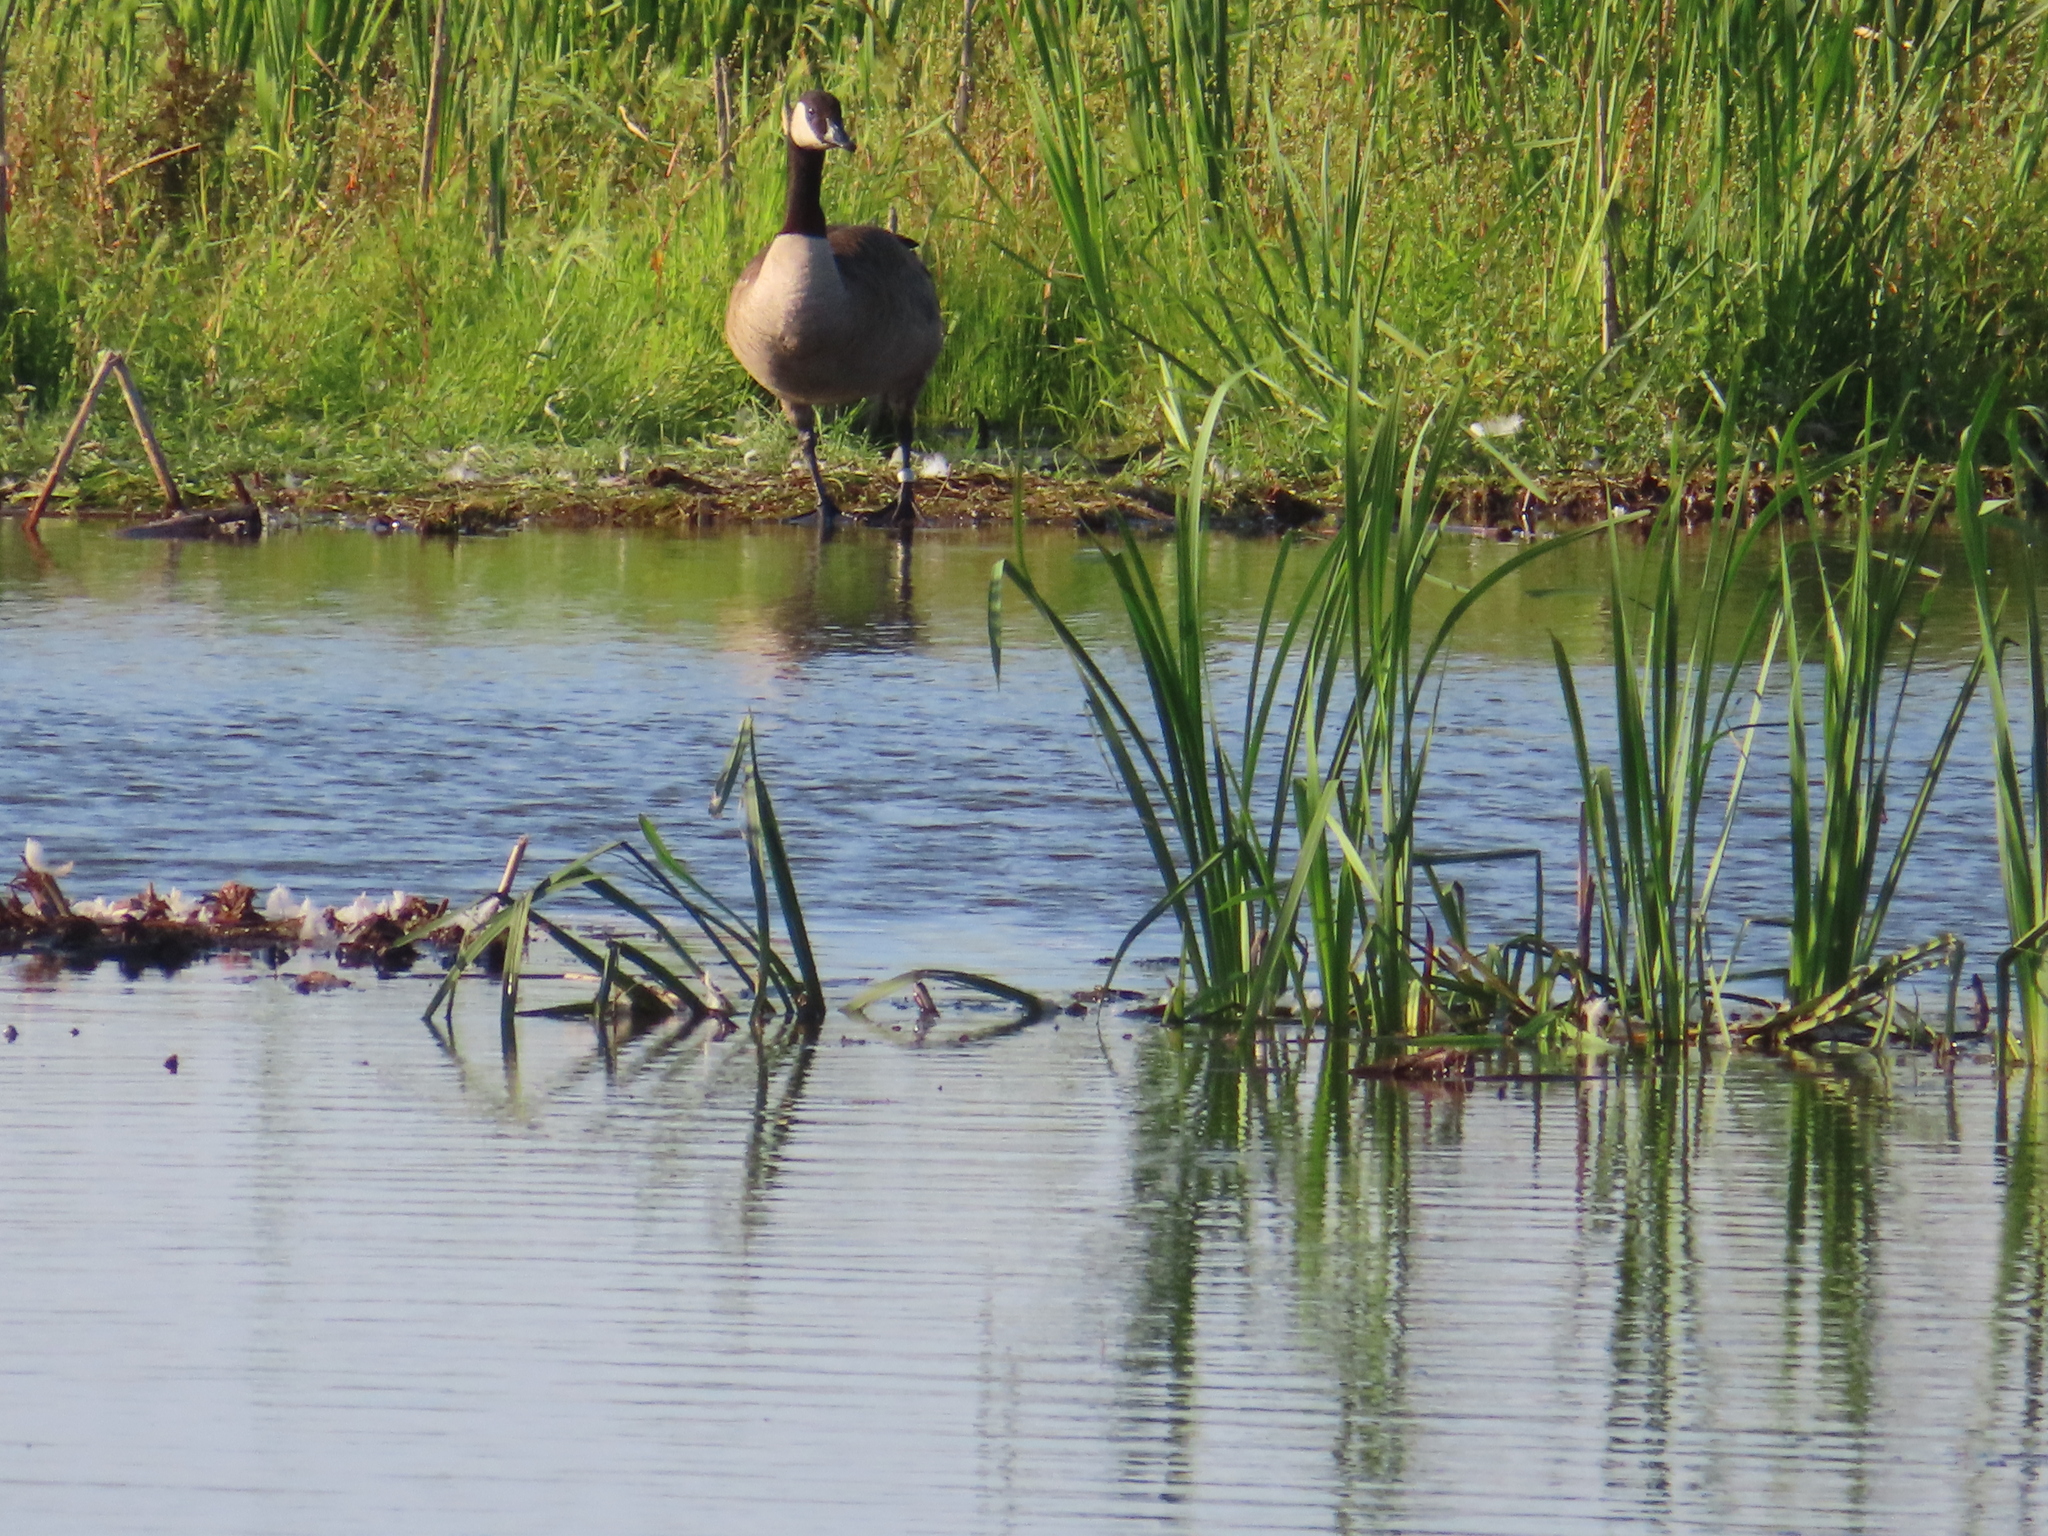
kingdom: Animalia
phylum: Chordata
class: Aves
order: Anseriformes
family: Anatidae
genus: Branta
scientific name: Branta canadensis
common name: Canada goose
